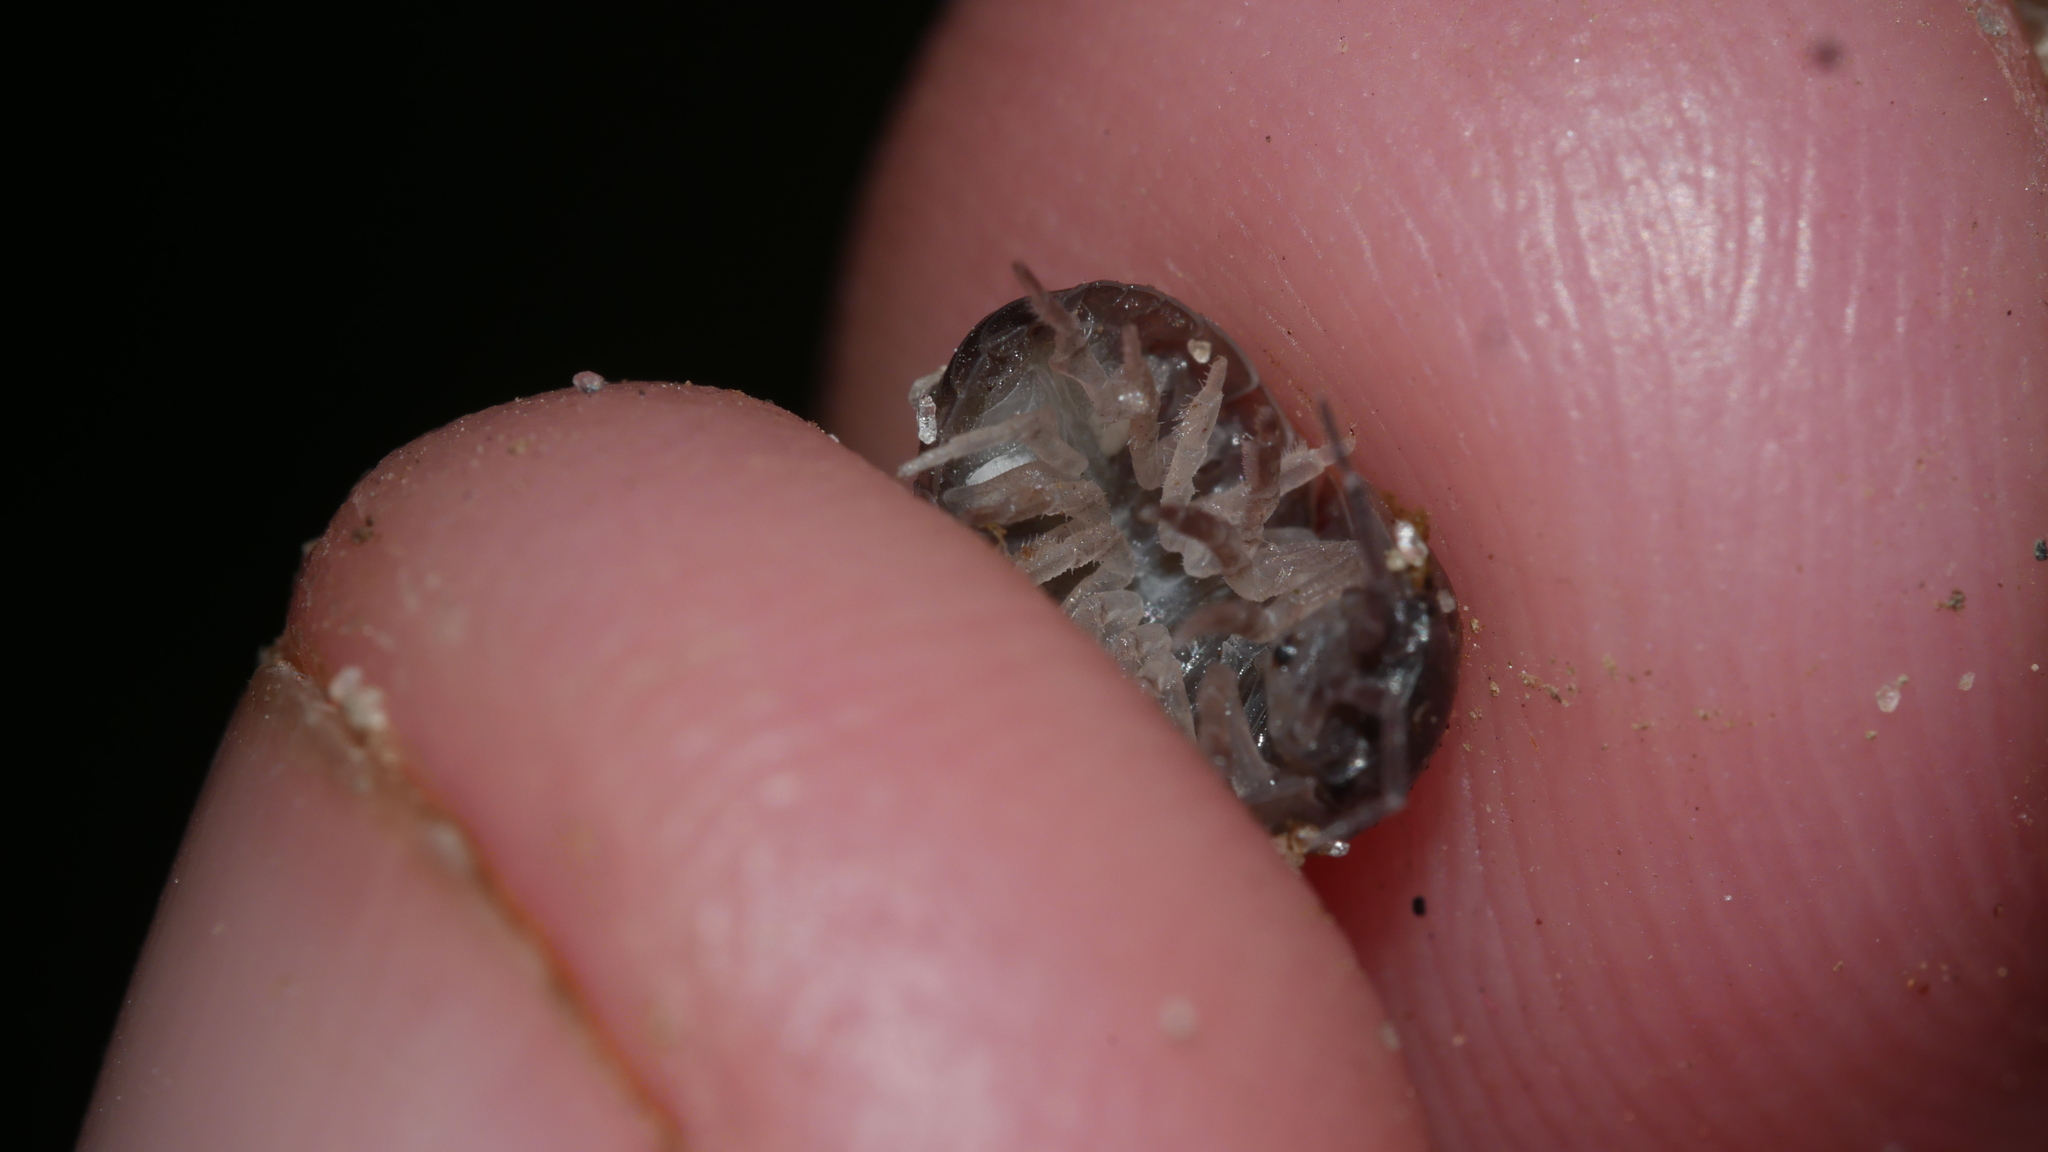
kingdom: Animalia
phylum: Arthropoda
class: Malacostraca
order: Isopoda
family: Armadillidiidae
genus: Armadillidium
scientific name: Armadillidium vulgare
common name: Common pill woodlouse
